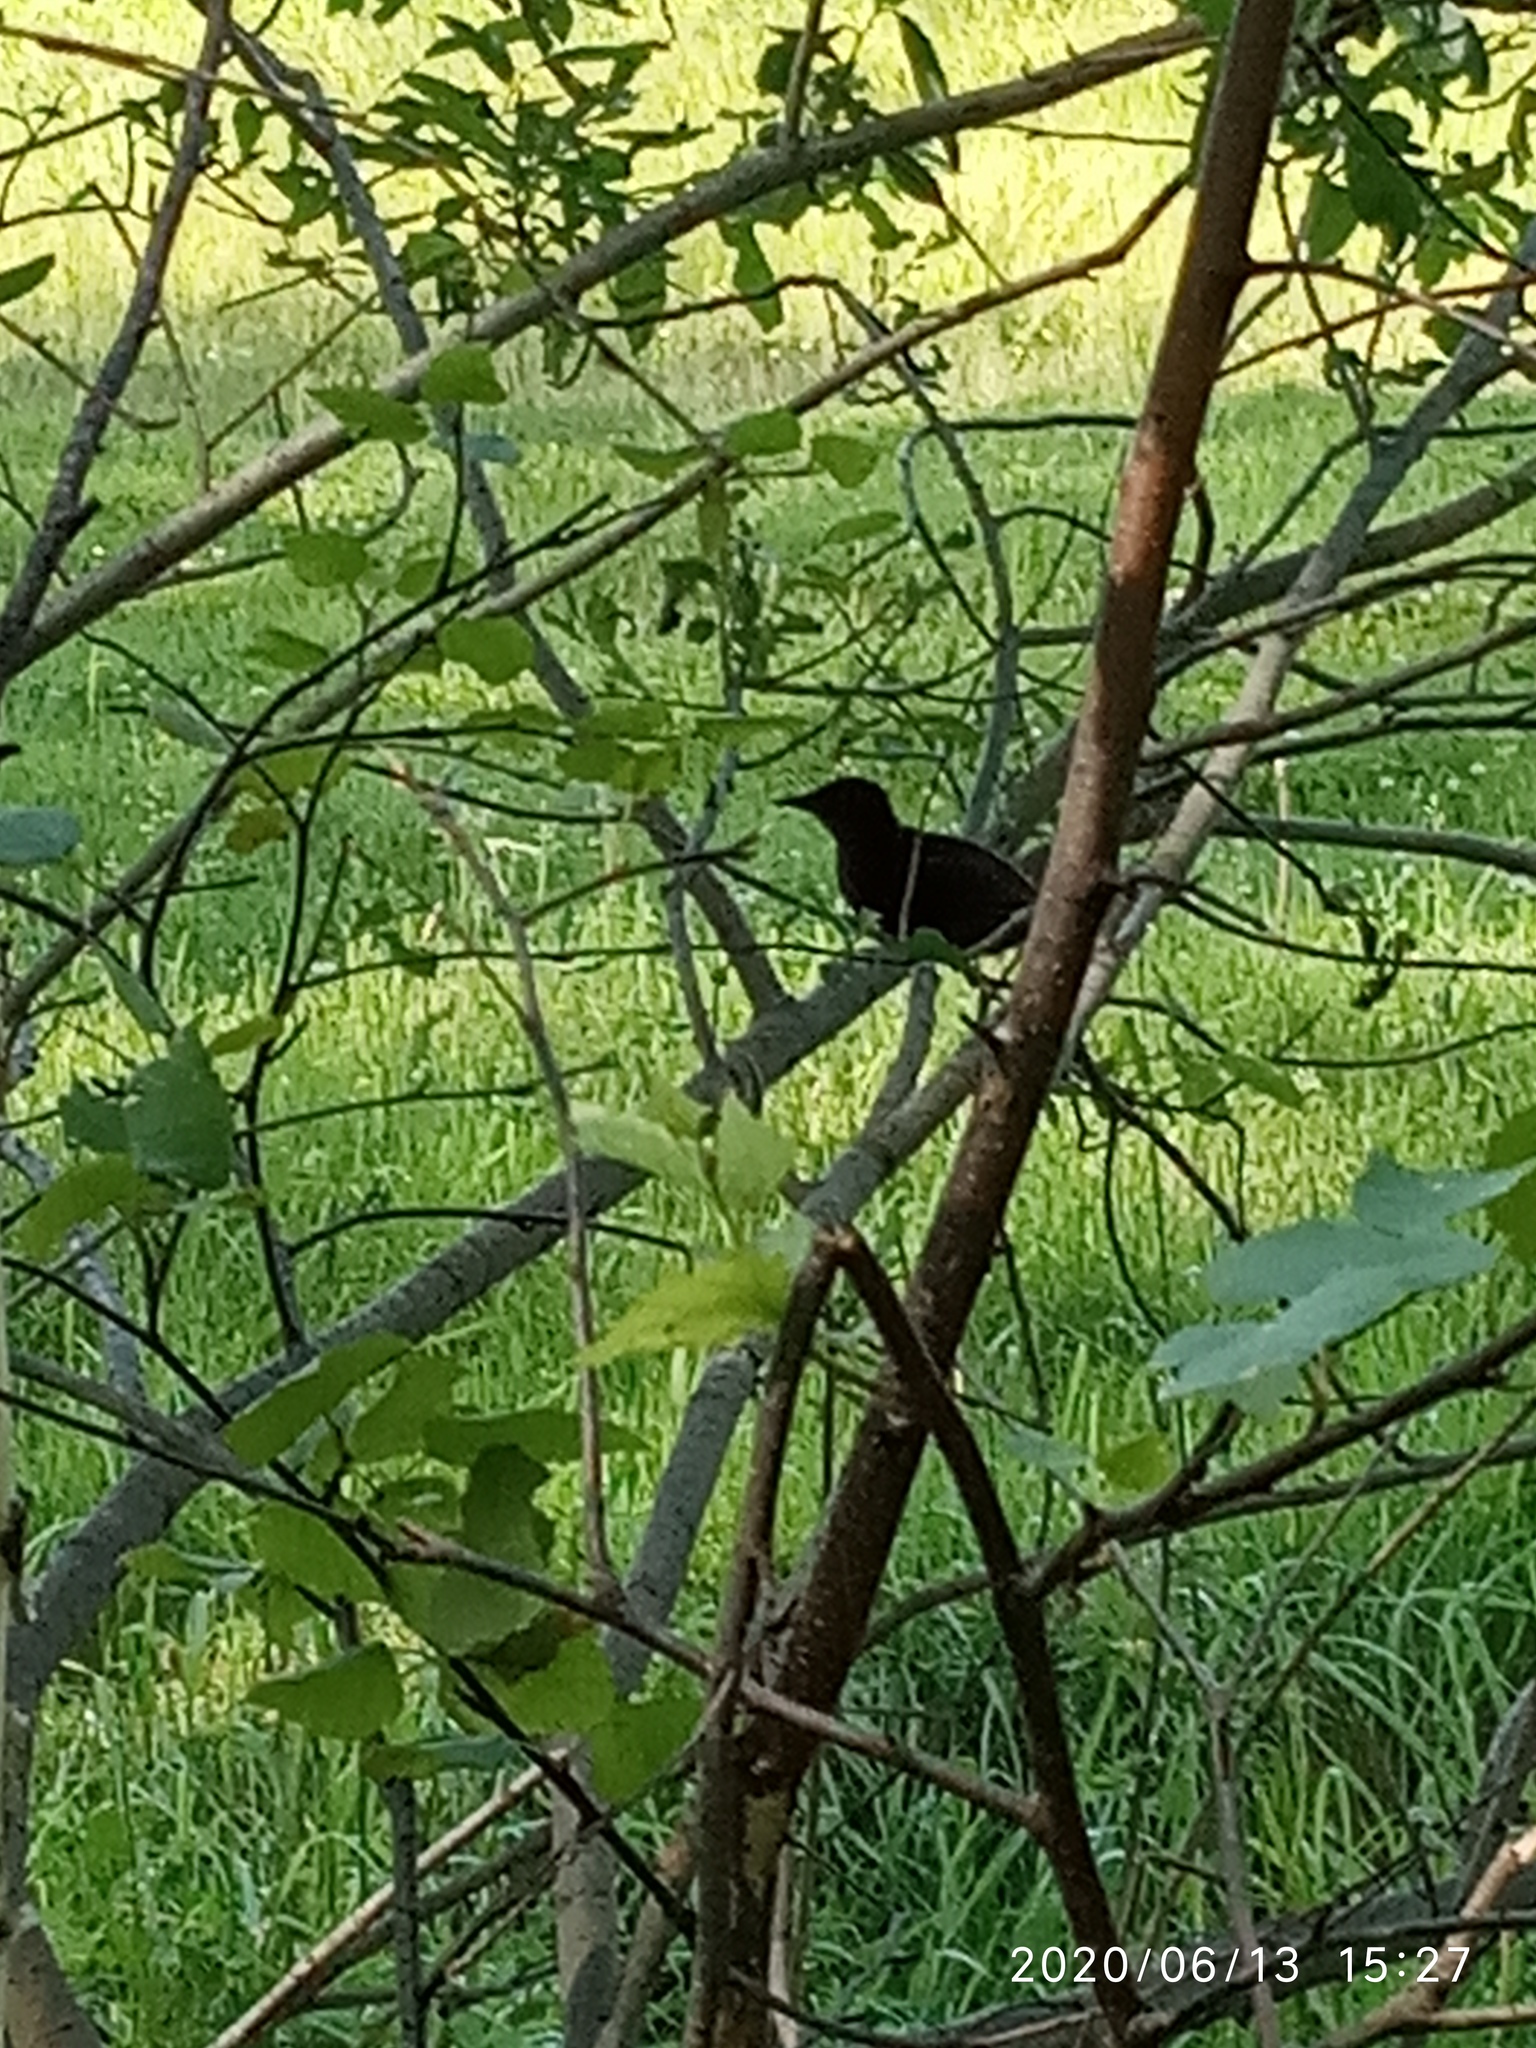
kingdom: Animalia
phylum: Chordata
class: Aves
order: Passeriformes
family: Sturnidae
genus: Sturnus
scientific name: Sturnus vulgaris
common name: Common starling
